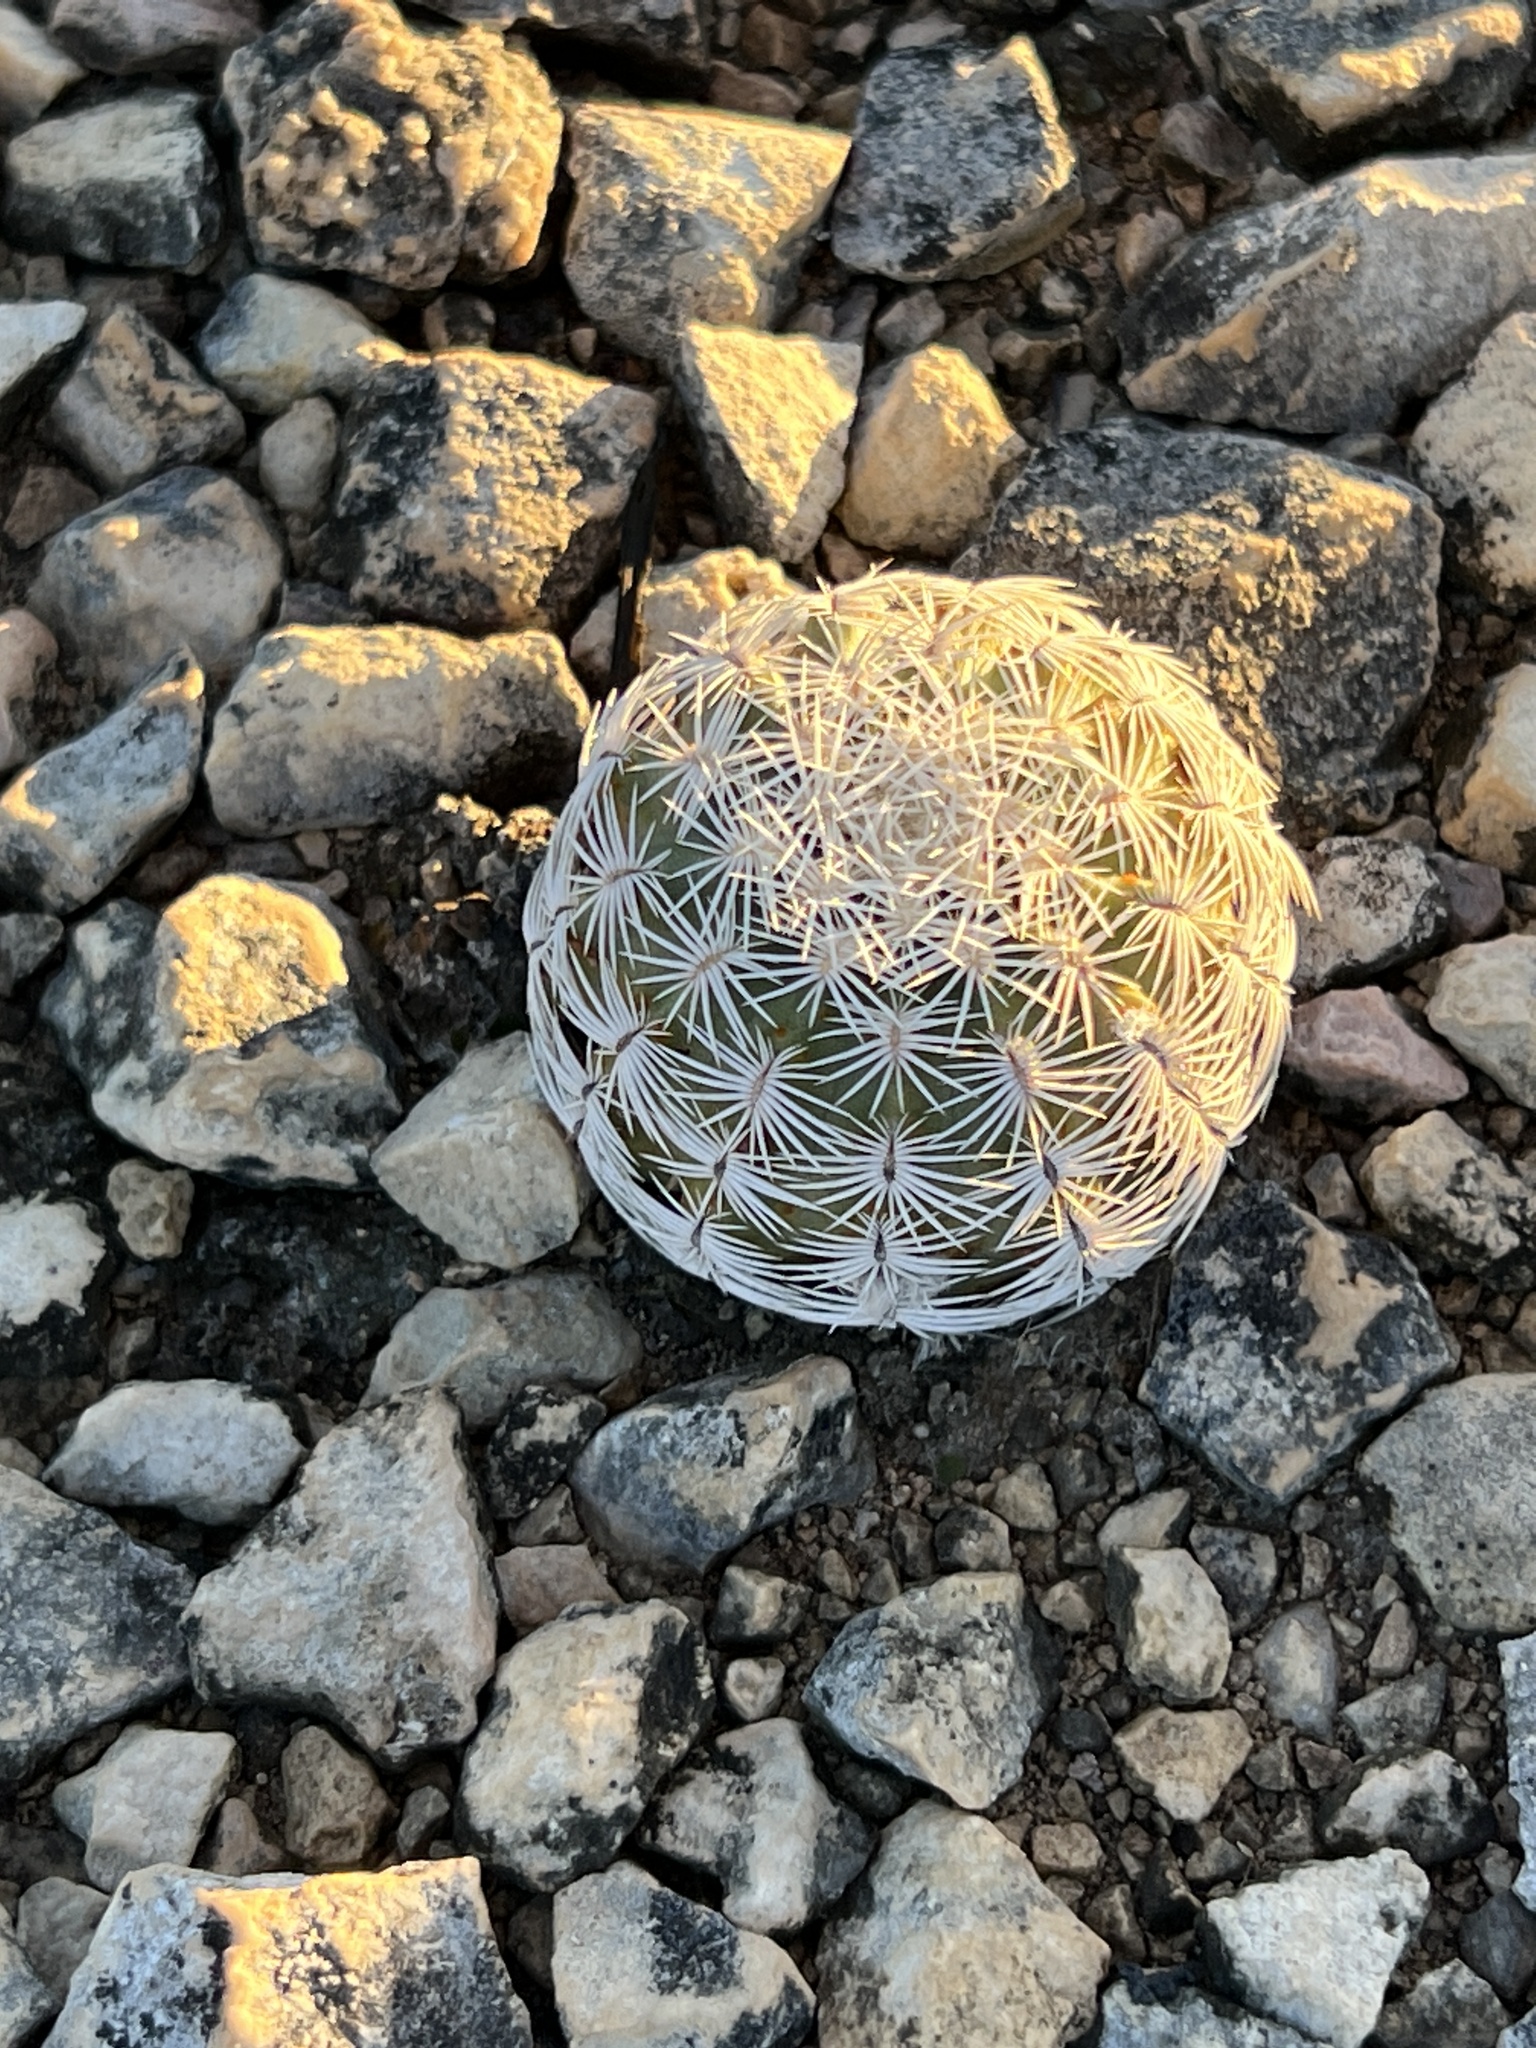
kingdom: Plantae
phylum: Tracheophyta
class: Magnoliopsida
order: Caryophyllales
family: Cactaceae
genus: Echinocereus
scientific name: Echinocereus reichenbachii
